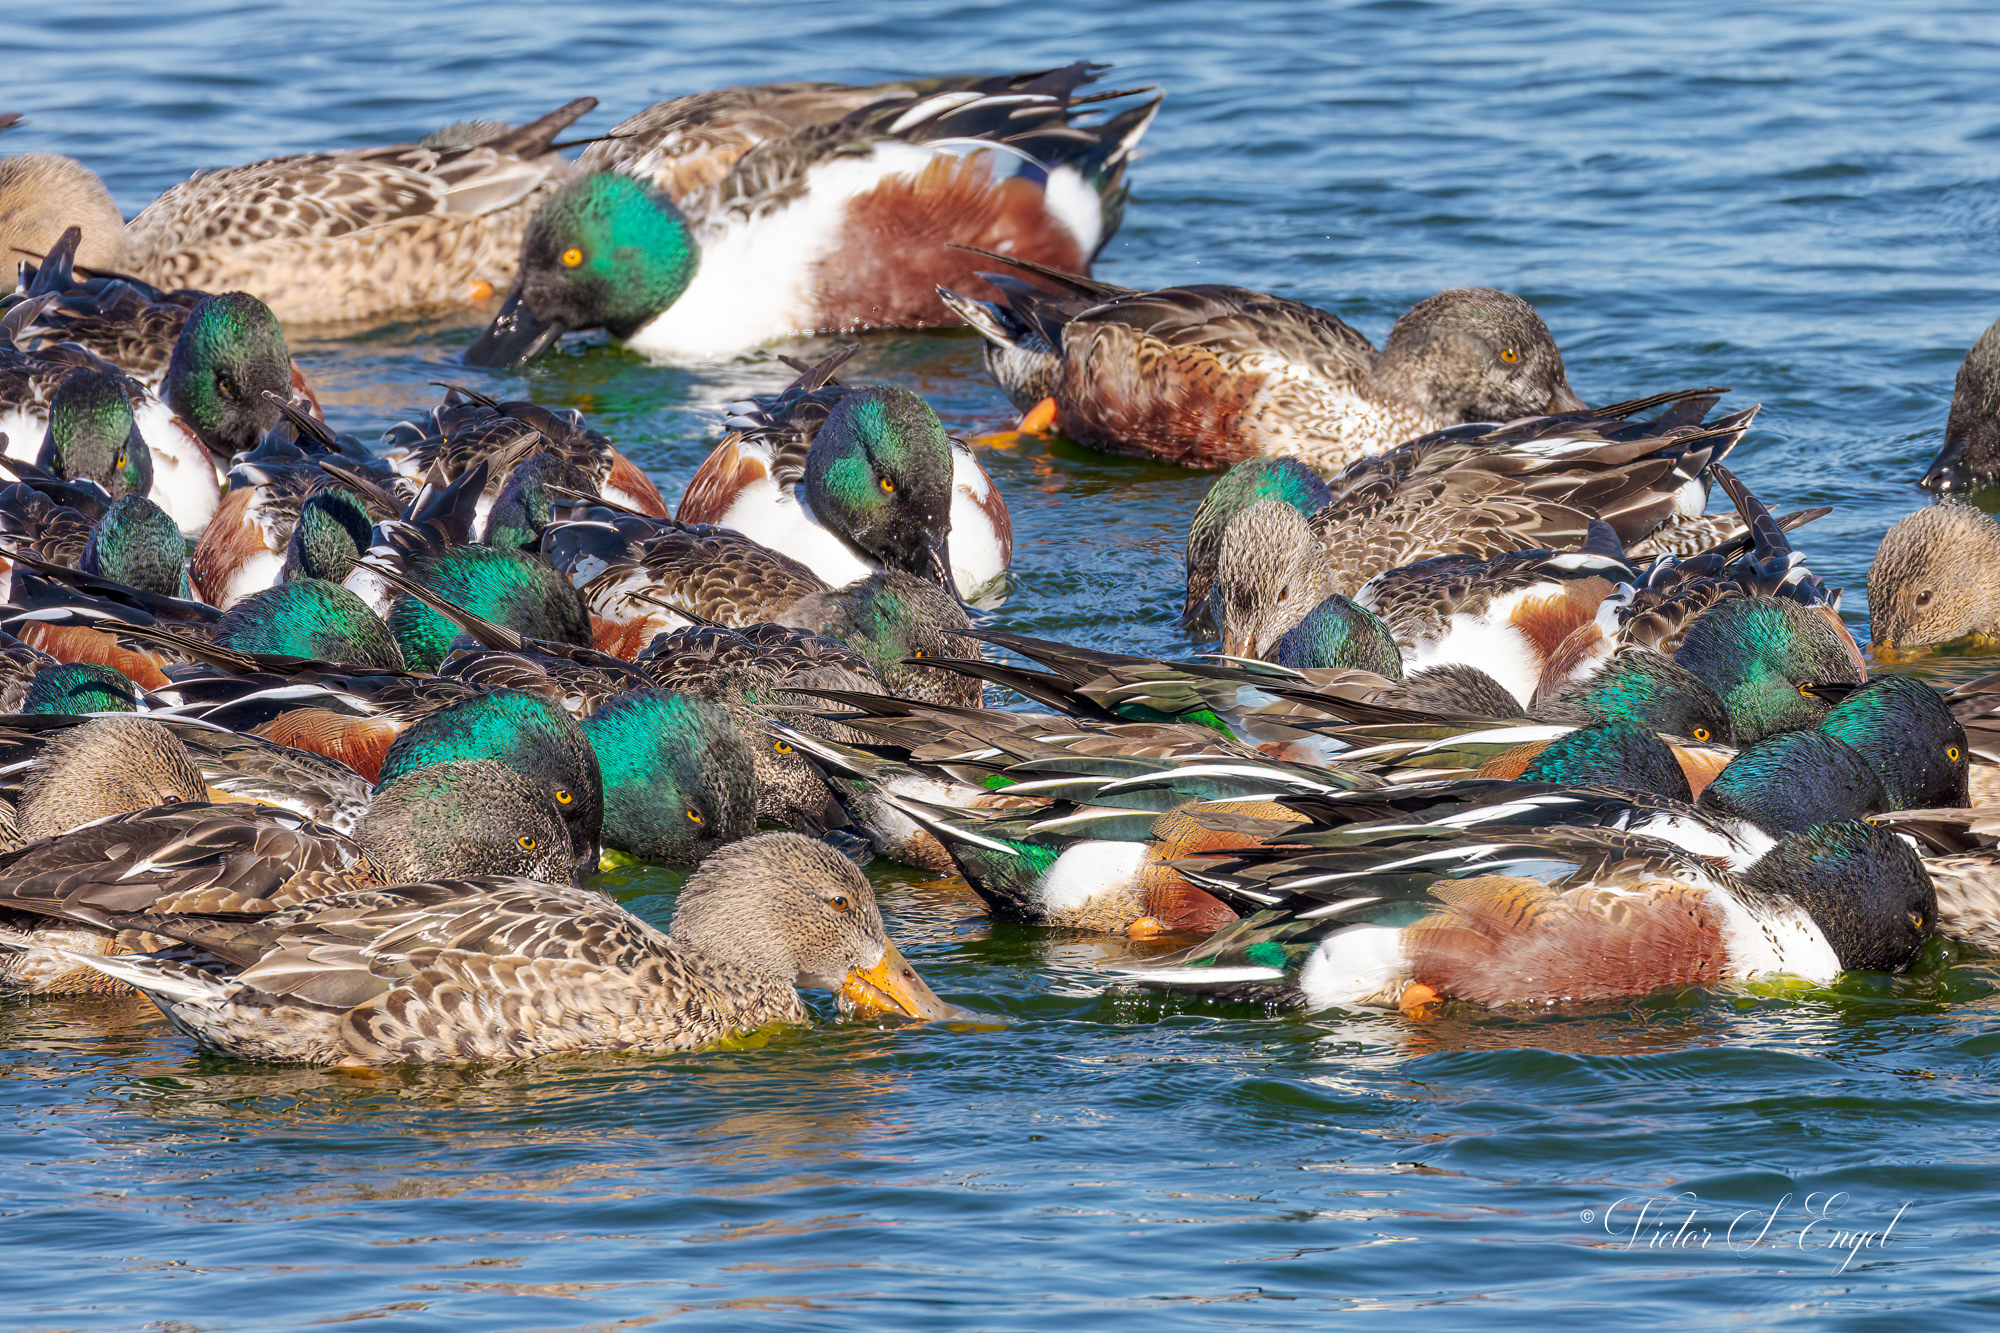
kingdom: Animalia
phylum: Chordata
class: Aves
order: Anseriformes
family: Anatidae
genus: Spatula
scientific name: Spatula clypeata
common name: Northern shoveler
